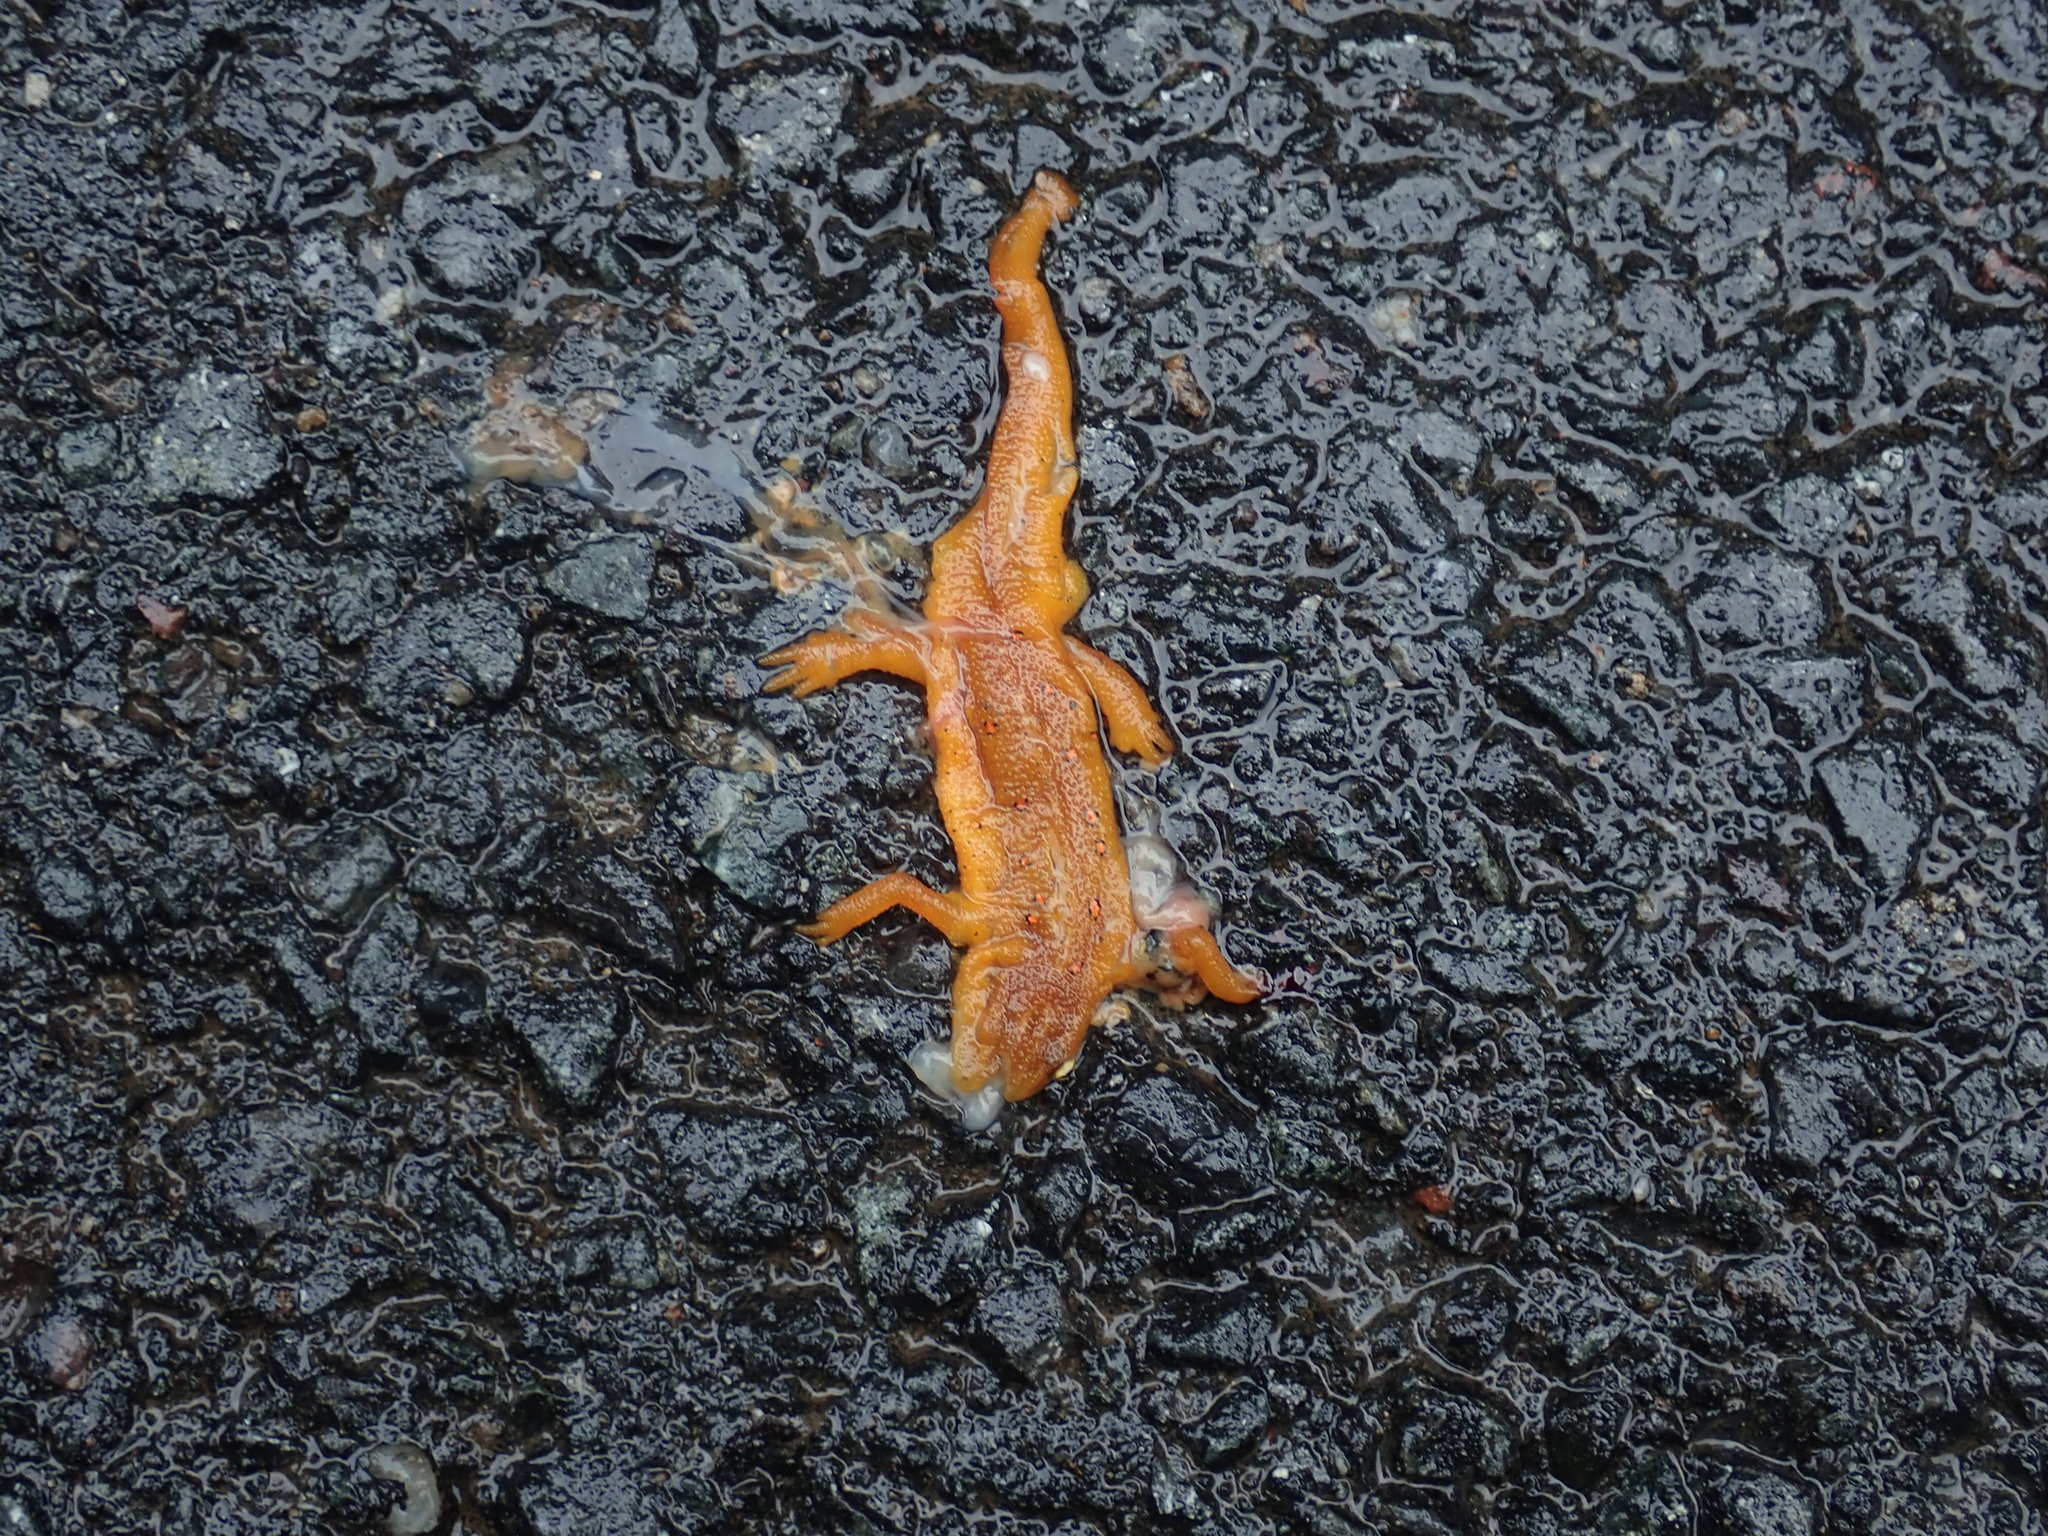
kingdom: Animalia
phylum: Chordata
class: Amphibia
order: Caudata
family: Salamandridae
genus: Notophthalmus
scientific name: Notophthalmus viridescens
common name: Eastern newt
